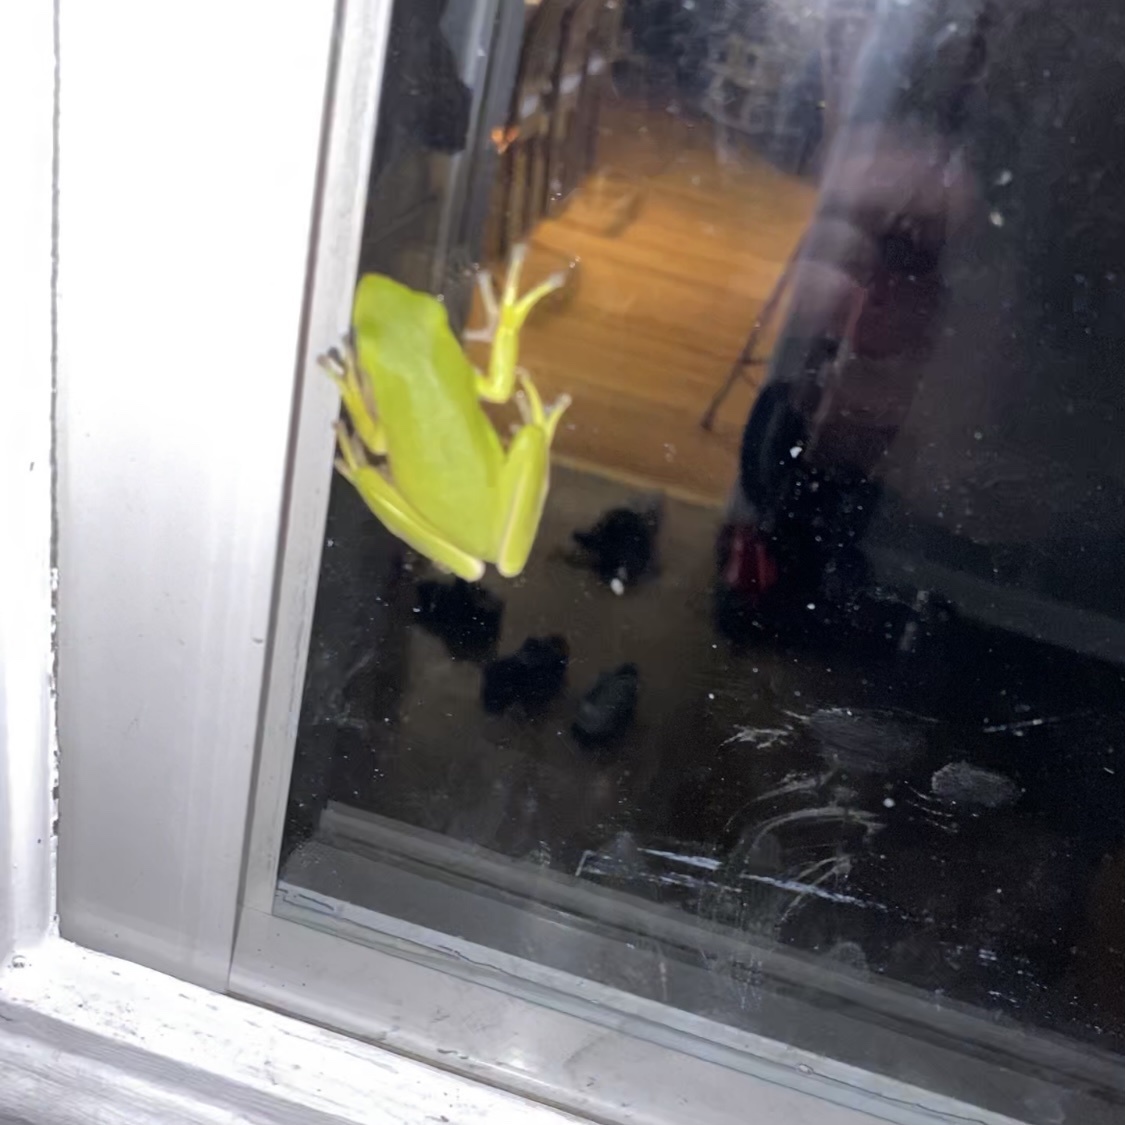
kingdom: Animalia
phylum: Chordata
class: Amphibia
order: Anura
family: Hylidae
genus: Dryophytes
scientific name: Dryophytes cinereus
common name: Green treefrog
